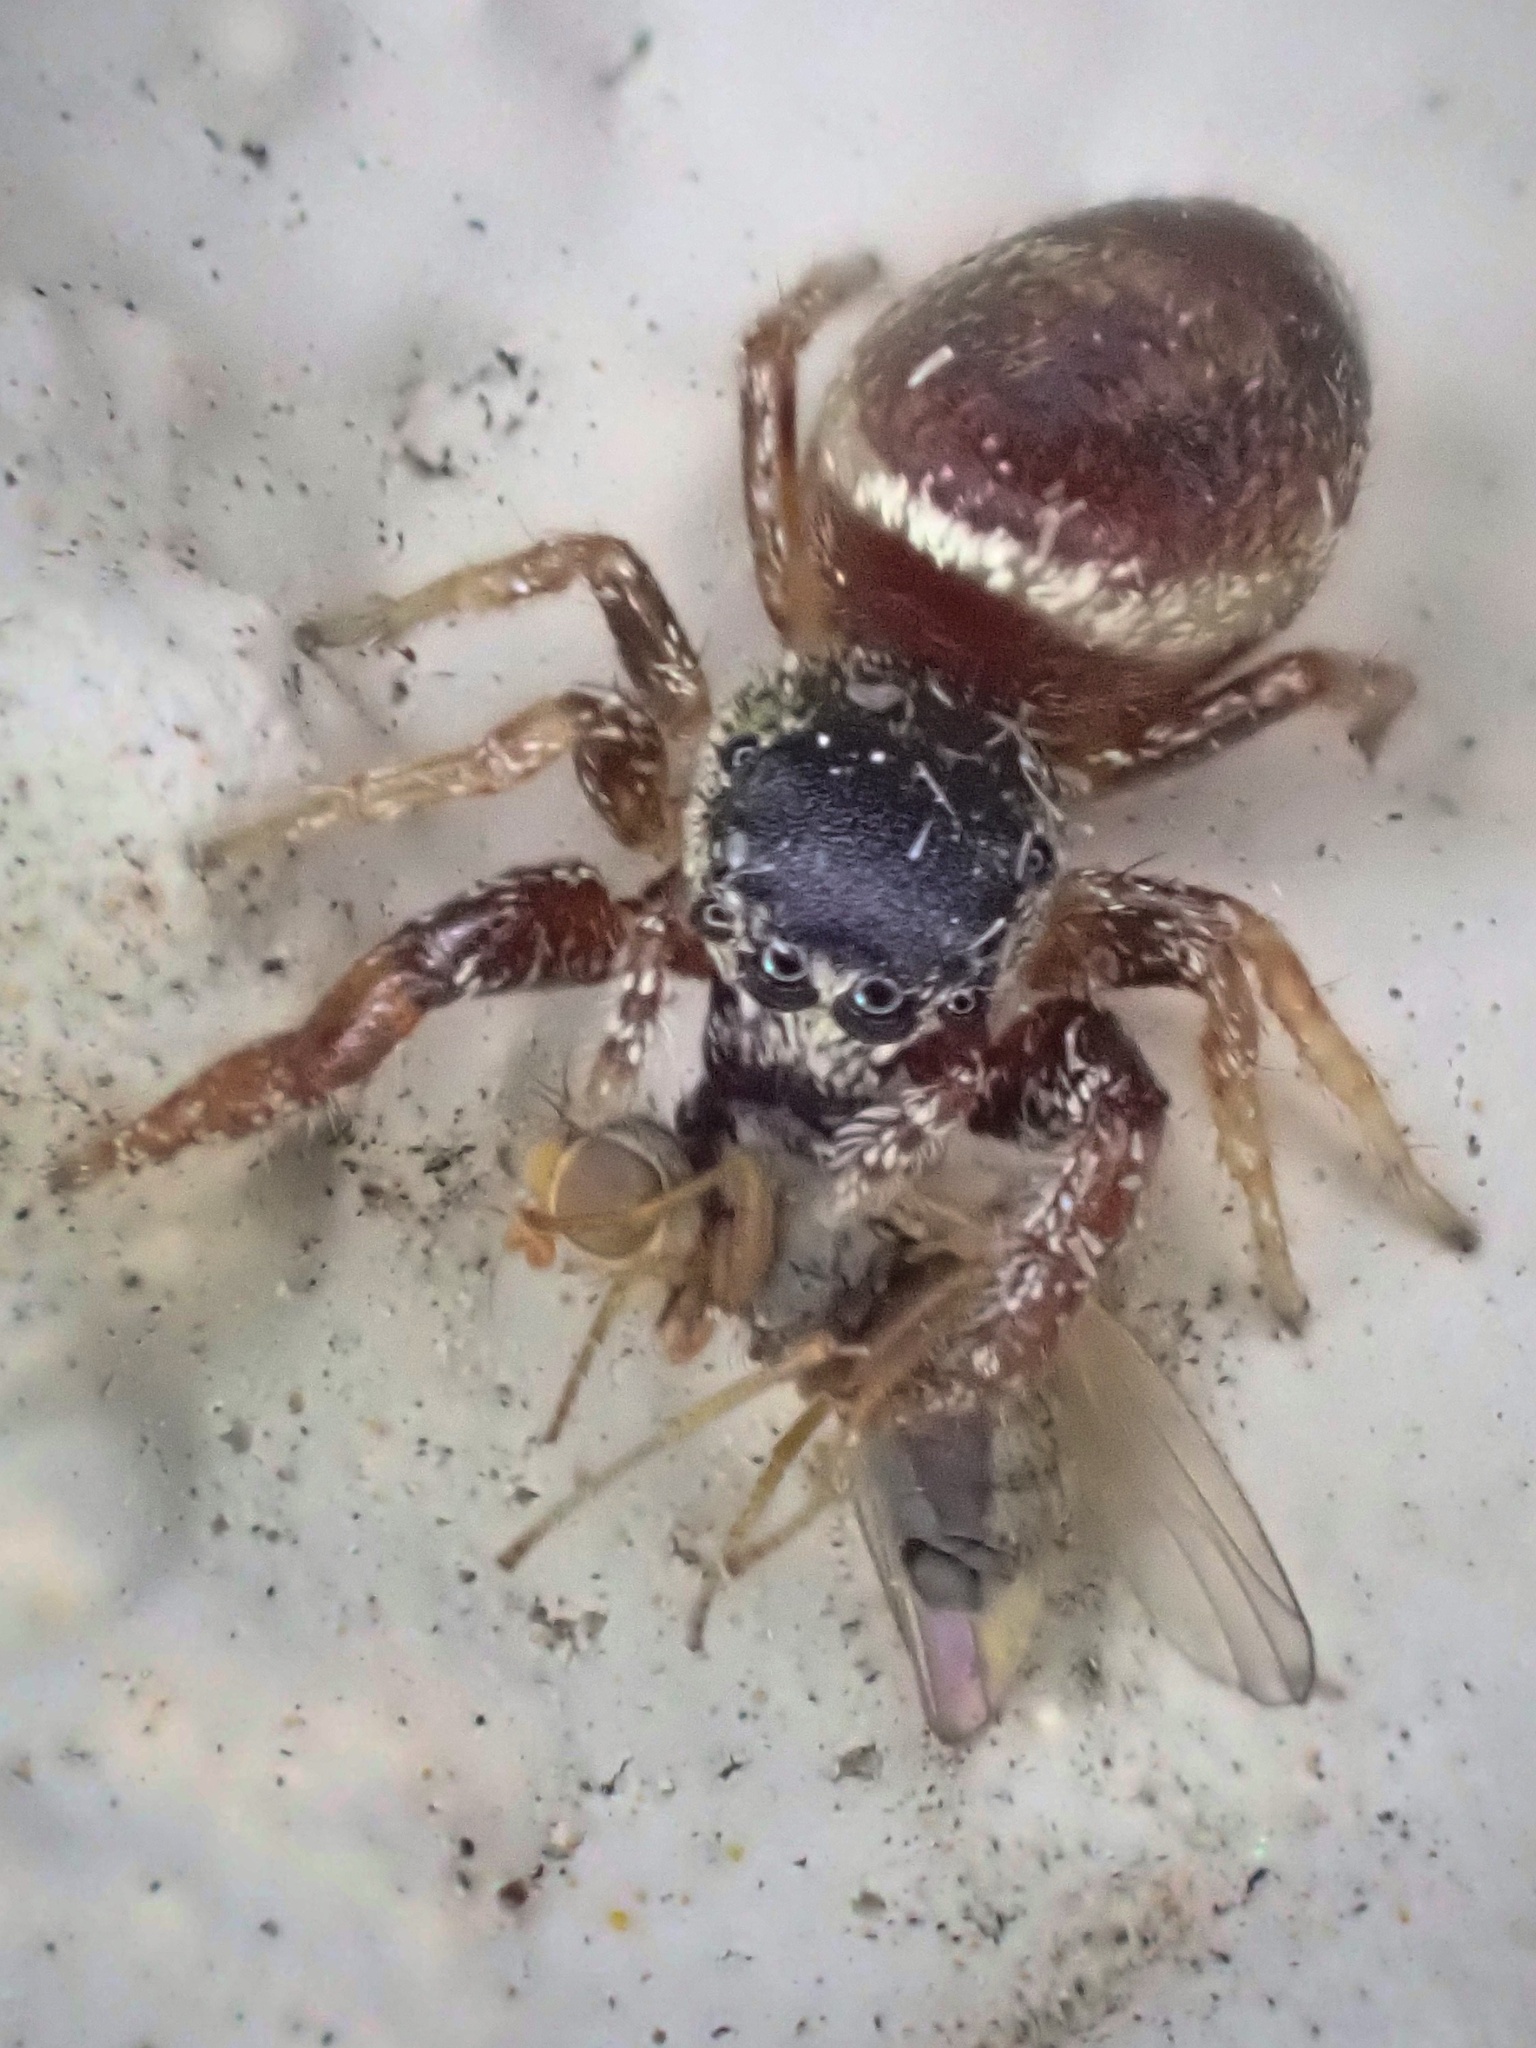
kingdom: Animalia
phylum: Arthropoda
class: Arachnida
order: Araneae
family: Salticidae
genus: Sassacus
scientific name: Sassacus vitis
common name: Jumping spiders
